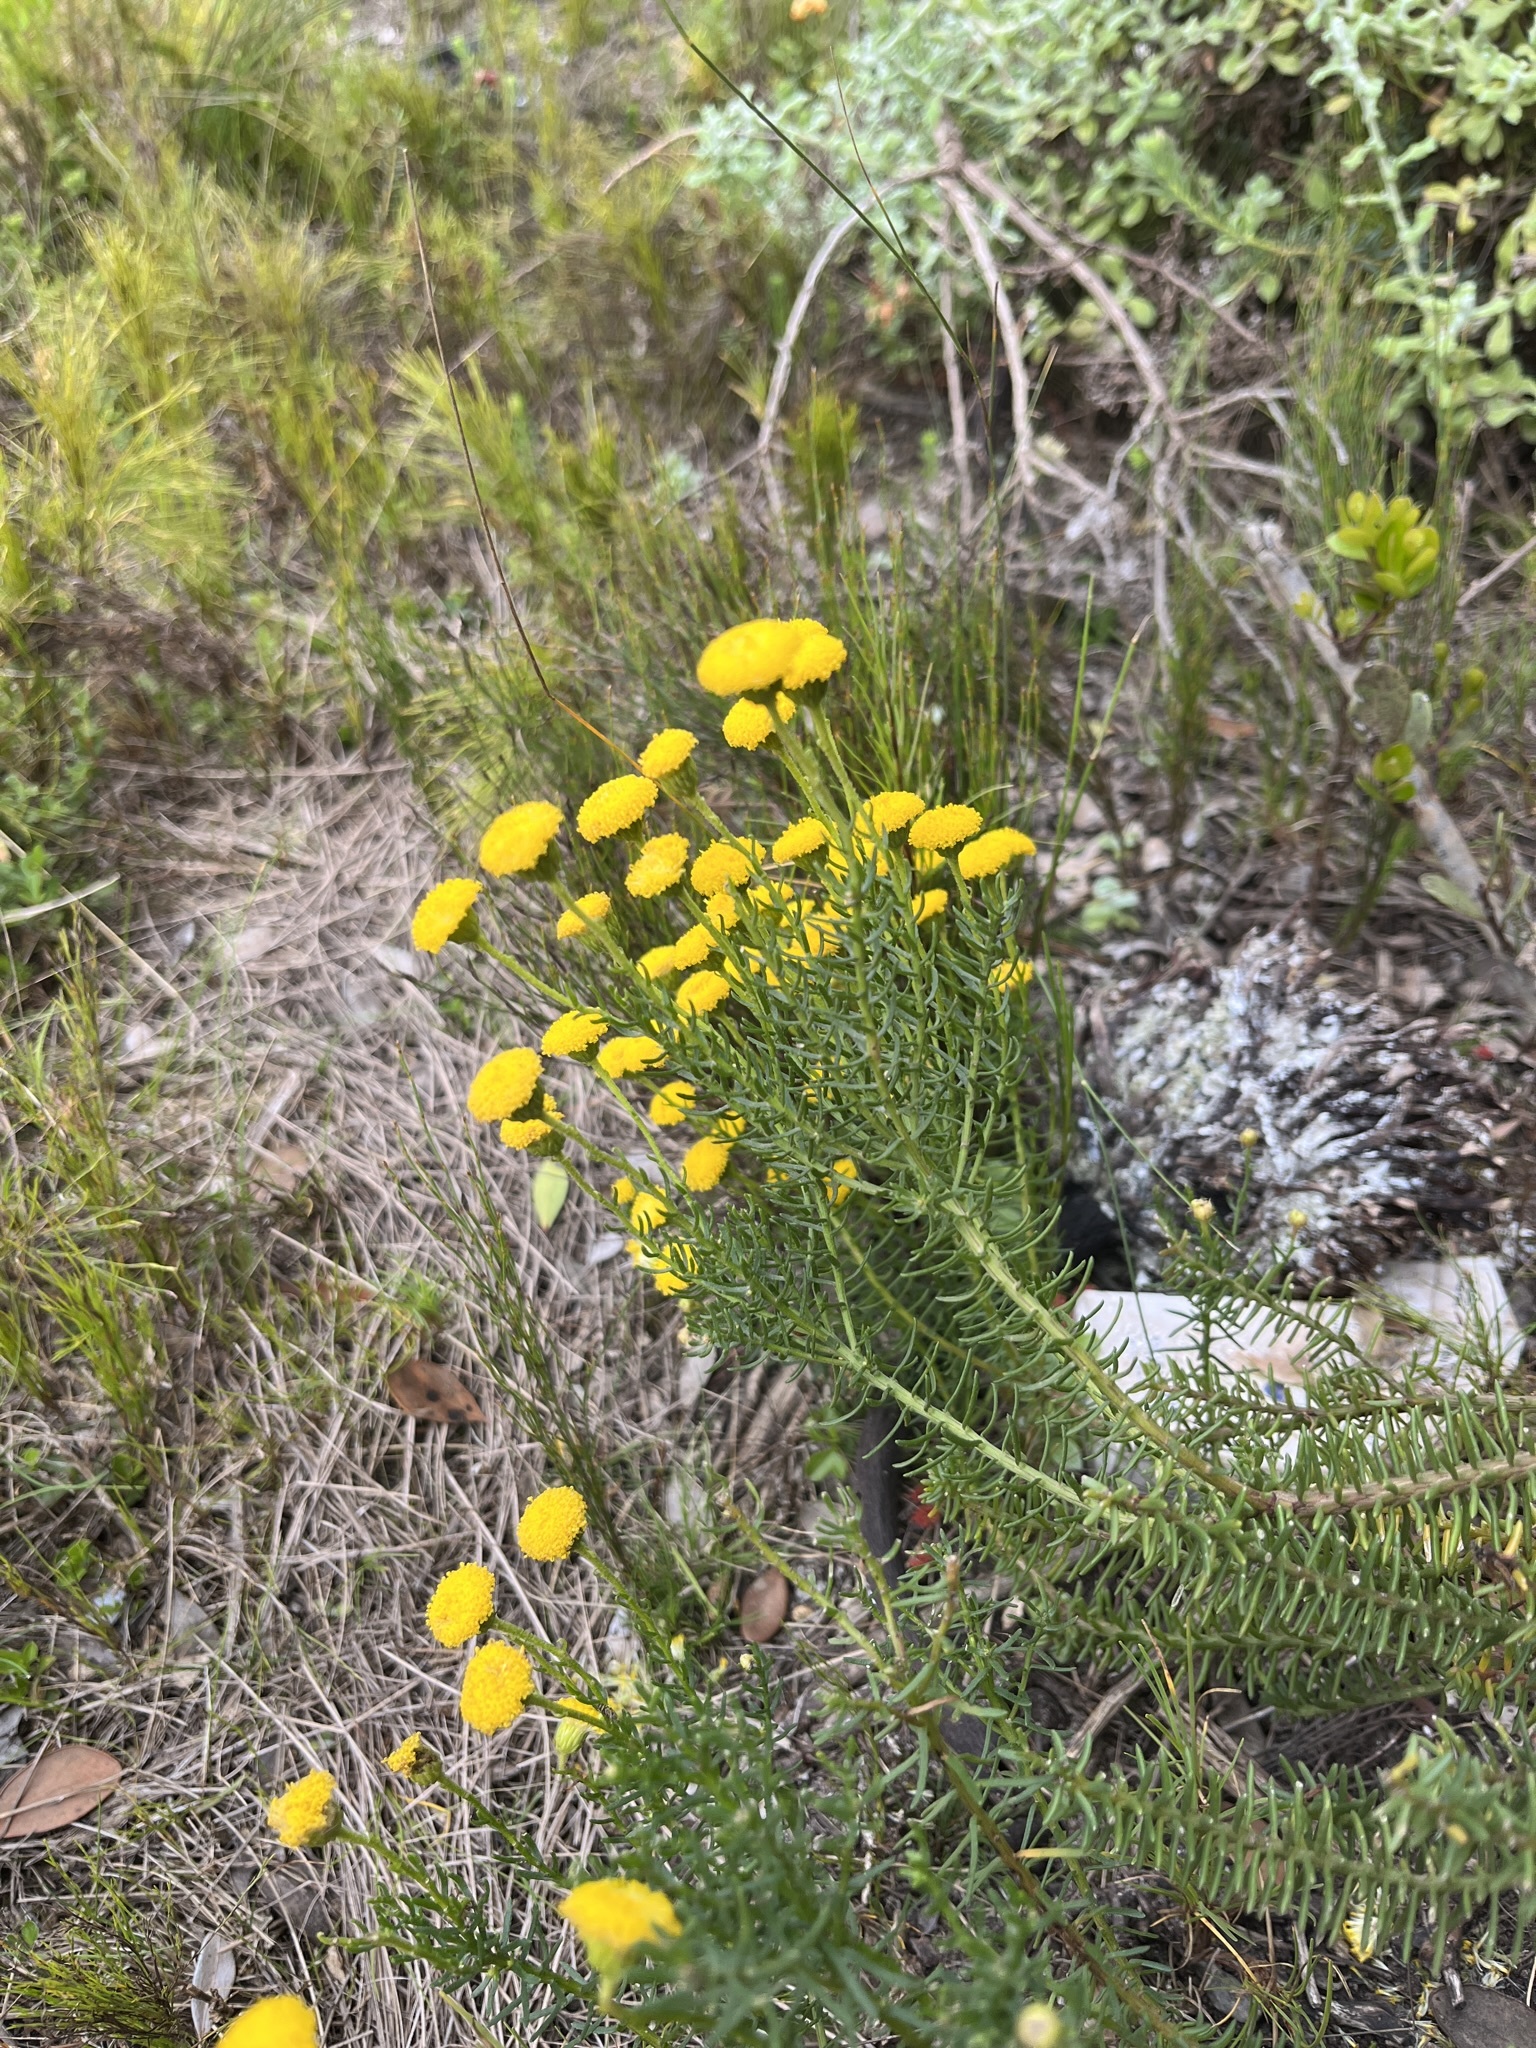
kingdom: Plantae
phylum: Tracheophyta
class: Magnoliopsida
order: Asterales
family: Asteraceae
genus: Chrysocoma
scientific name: Chrysocoma cernua
